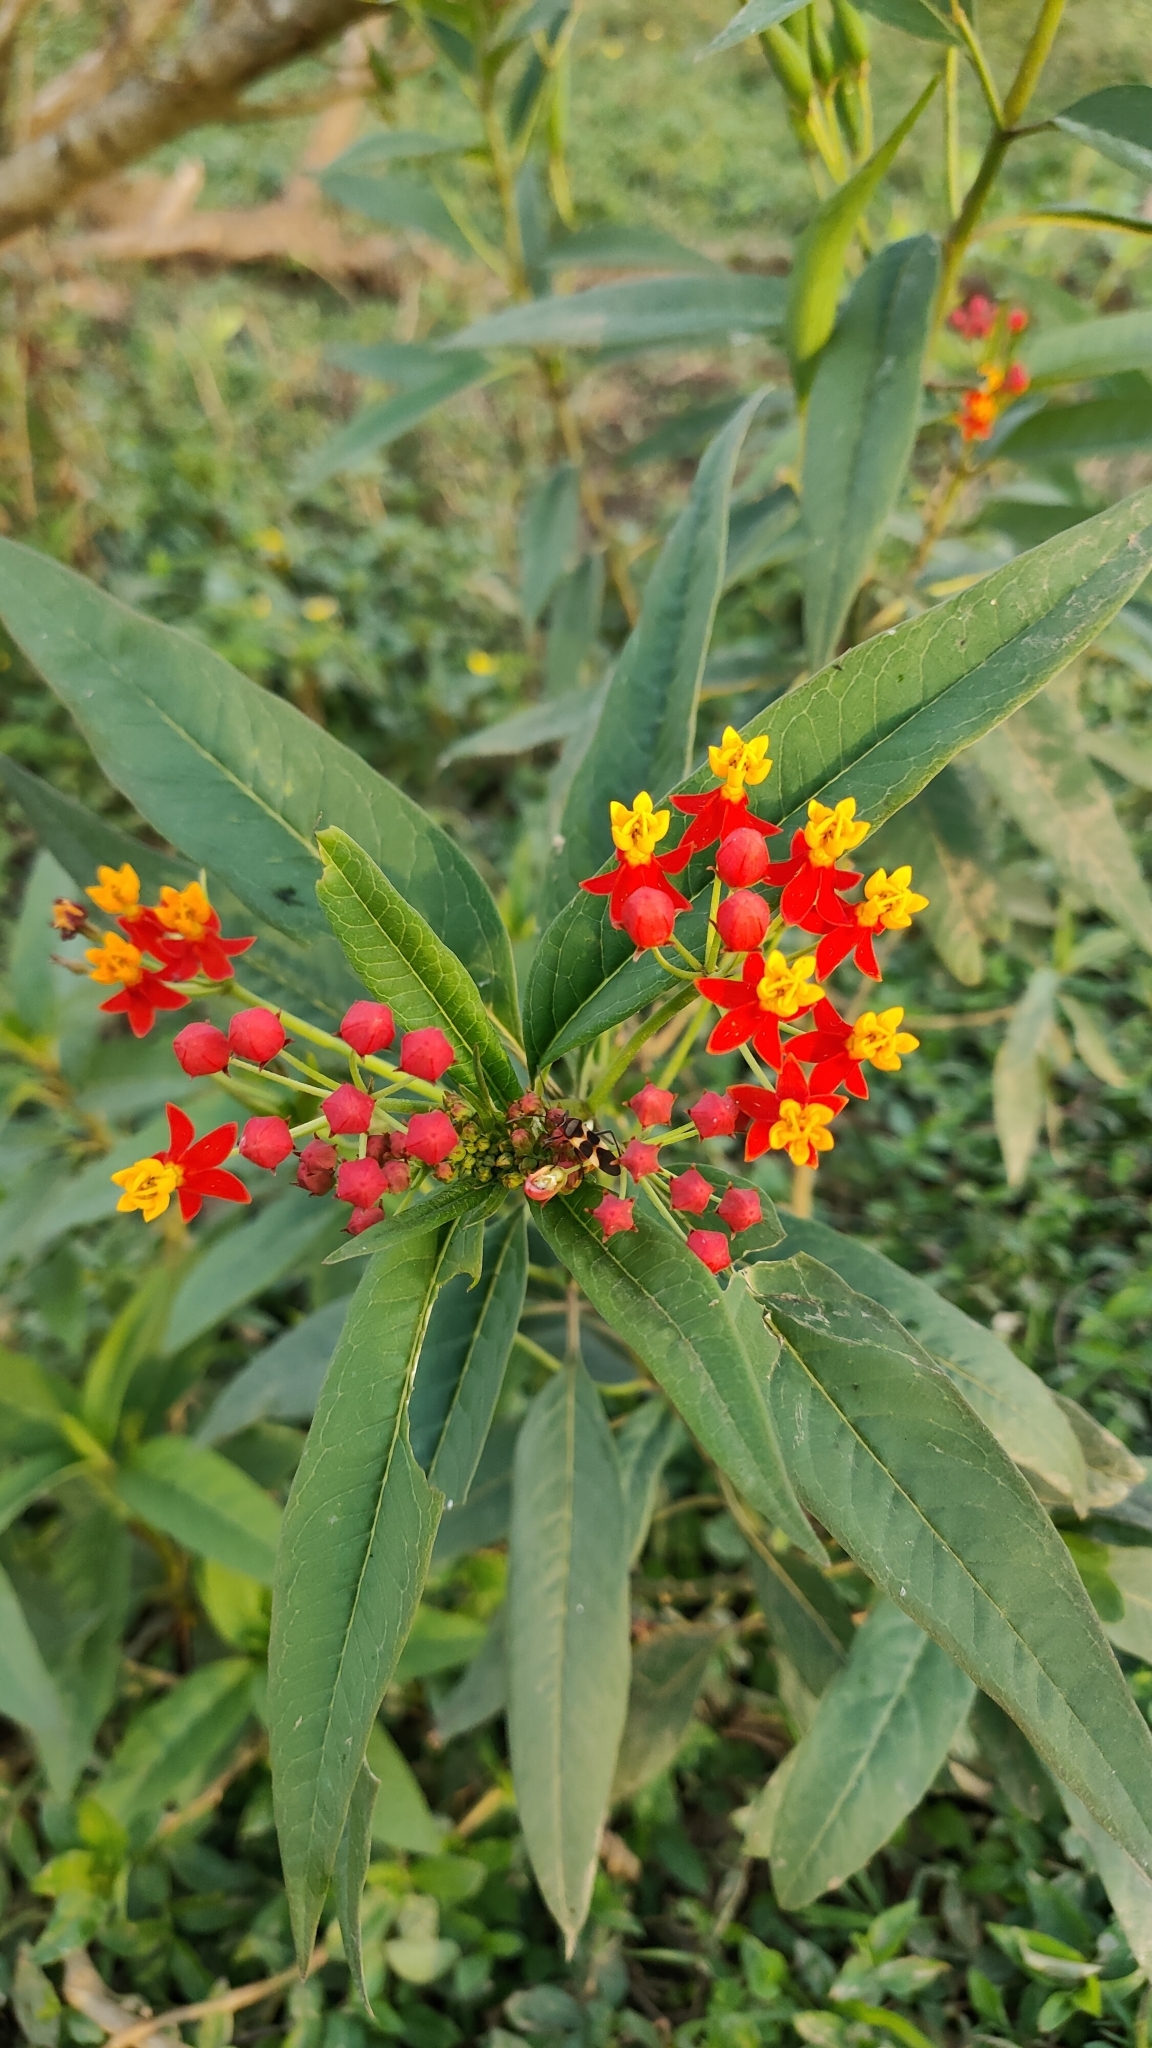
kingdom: Plantae
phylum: Tracheophyta
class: Magnoliopsida
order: Gentianales
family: Apocynaceae
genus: Asclepias
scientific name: Asclepias curassavica
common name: Bloodflower
